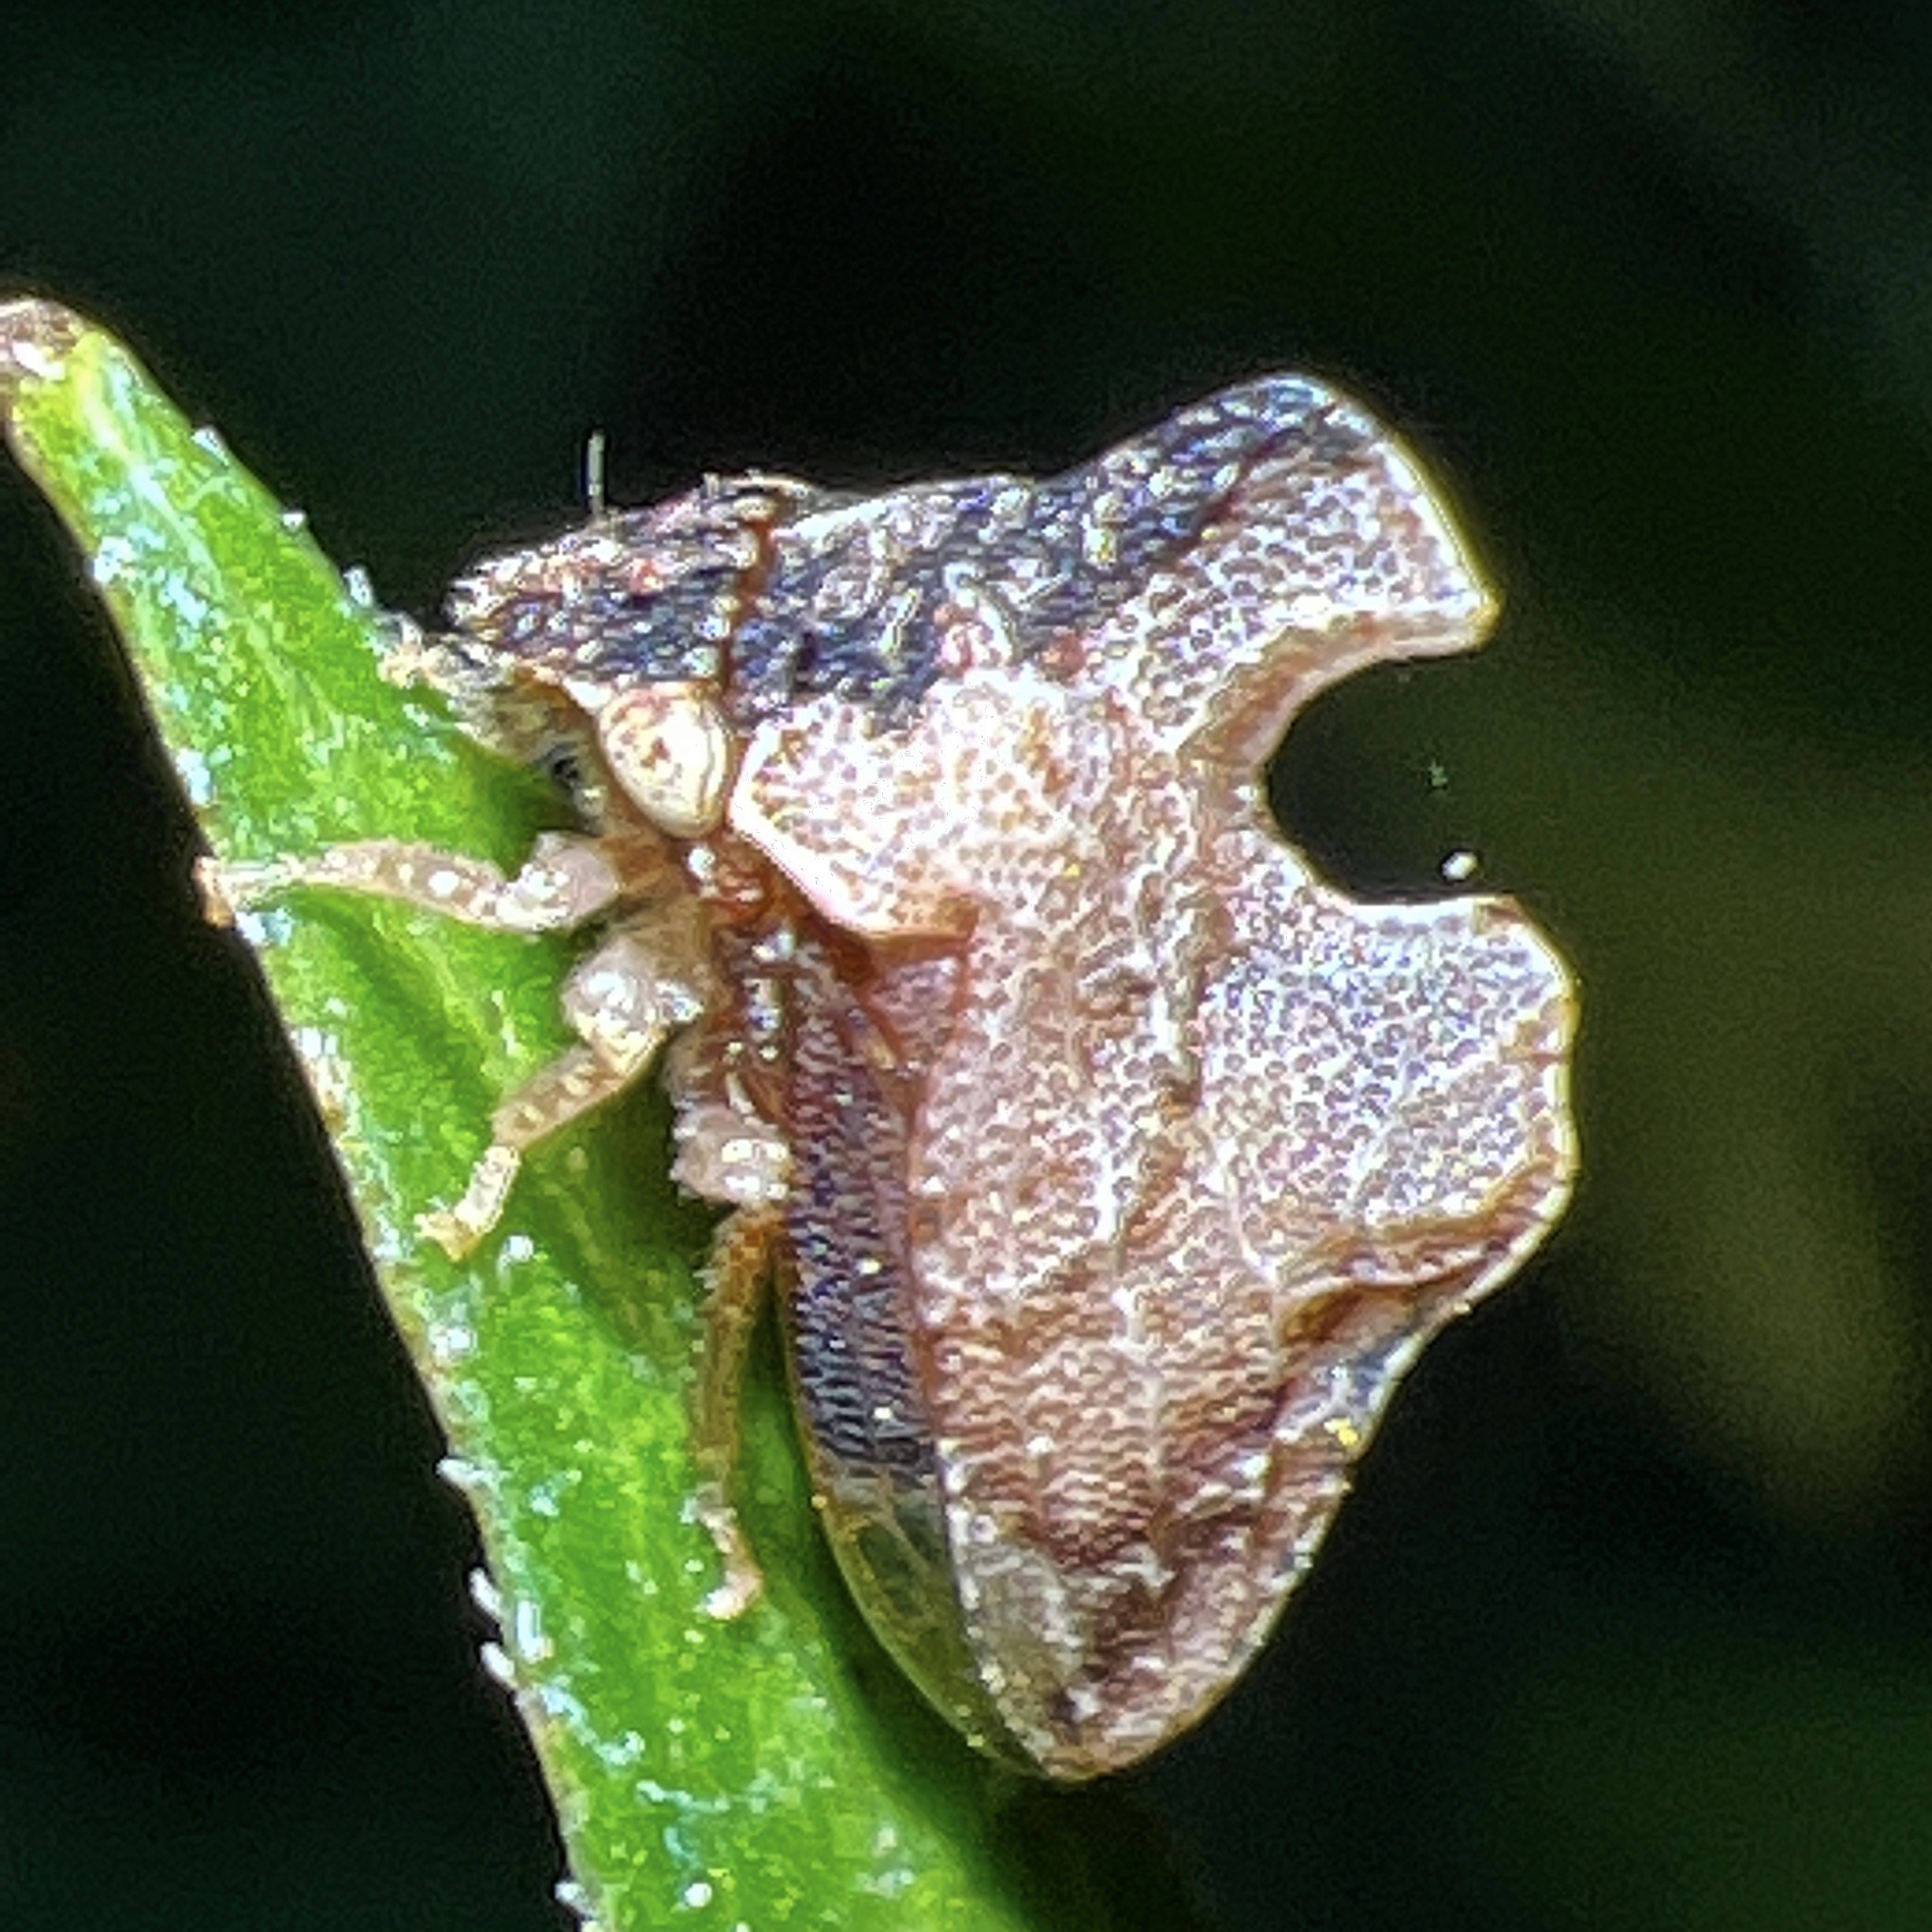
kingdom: Animalia
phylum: Arthropoda
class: Insecta
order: Hemiptera
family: Membracidae
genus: Entylia
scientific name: Entylia carinata
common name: Keeled treehopper
